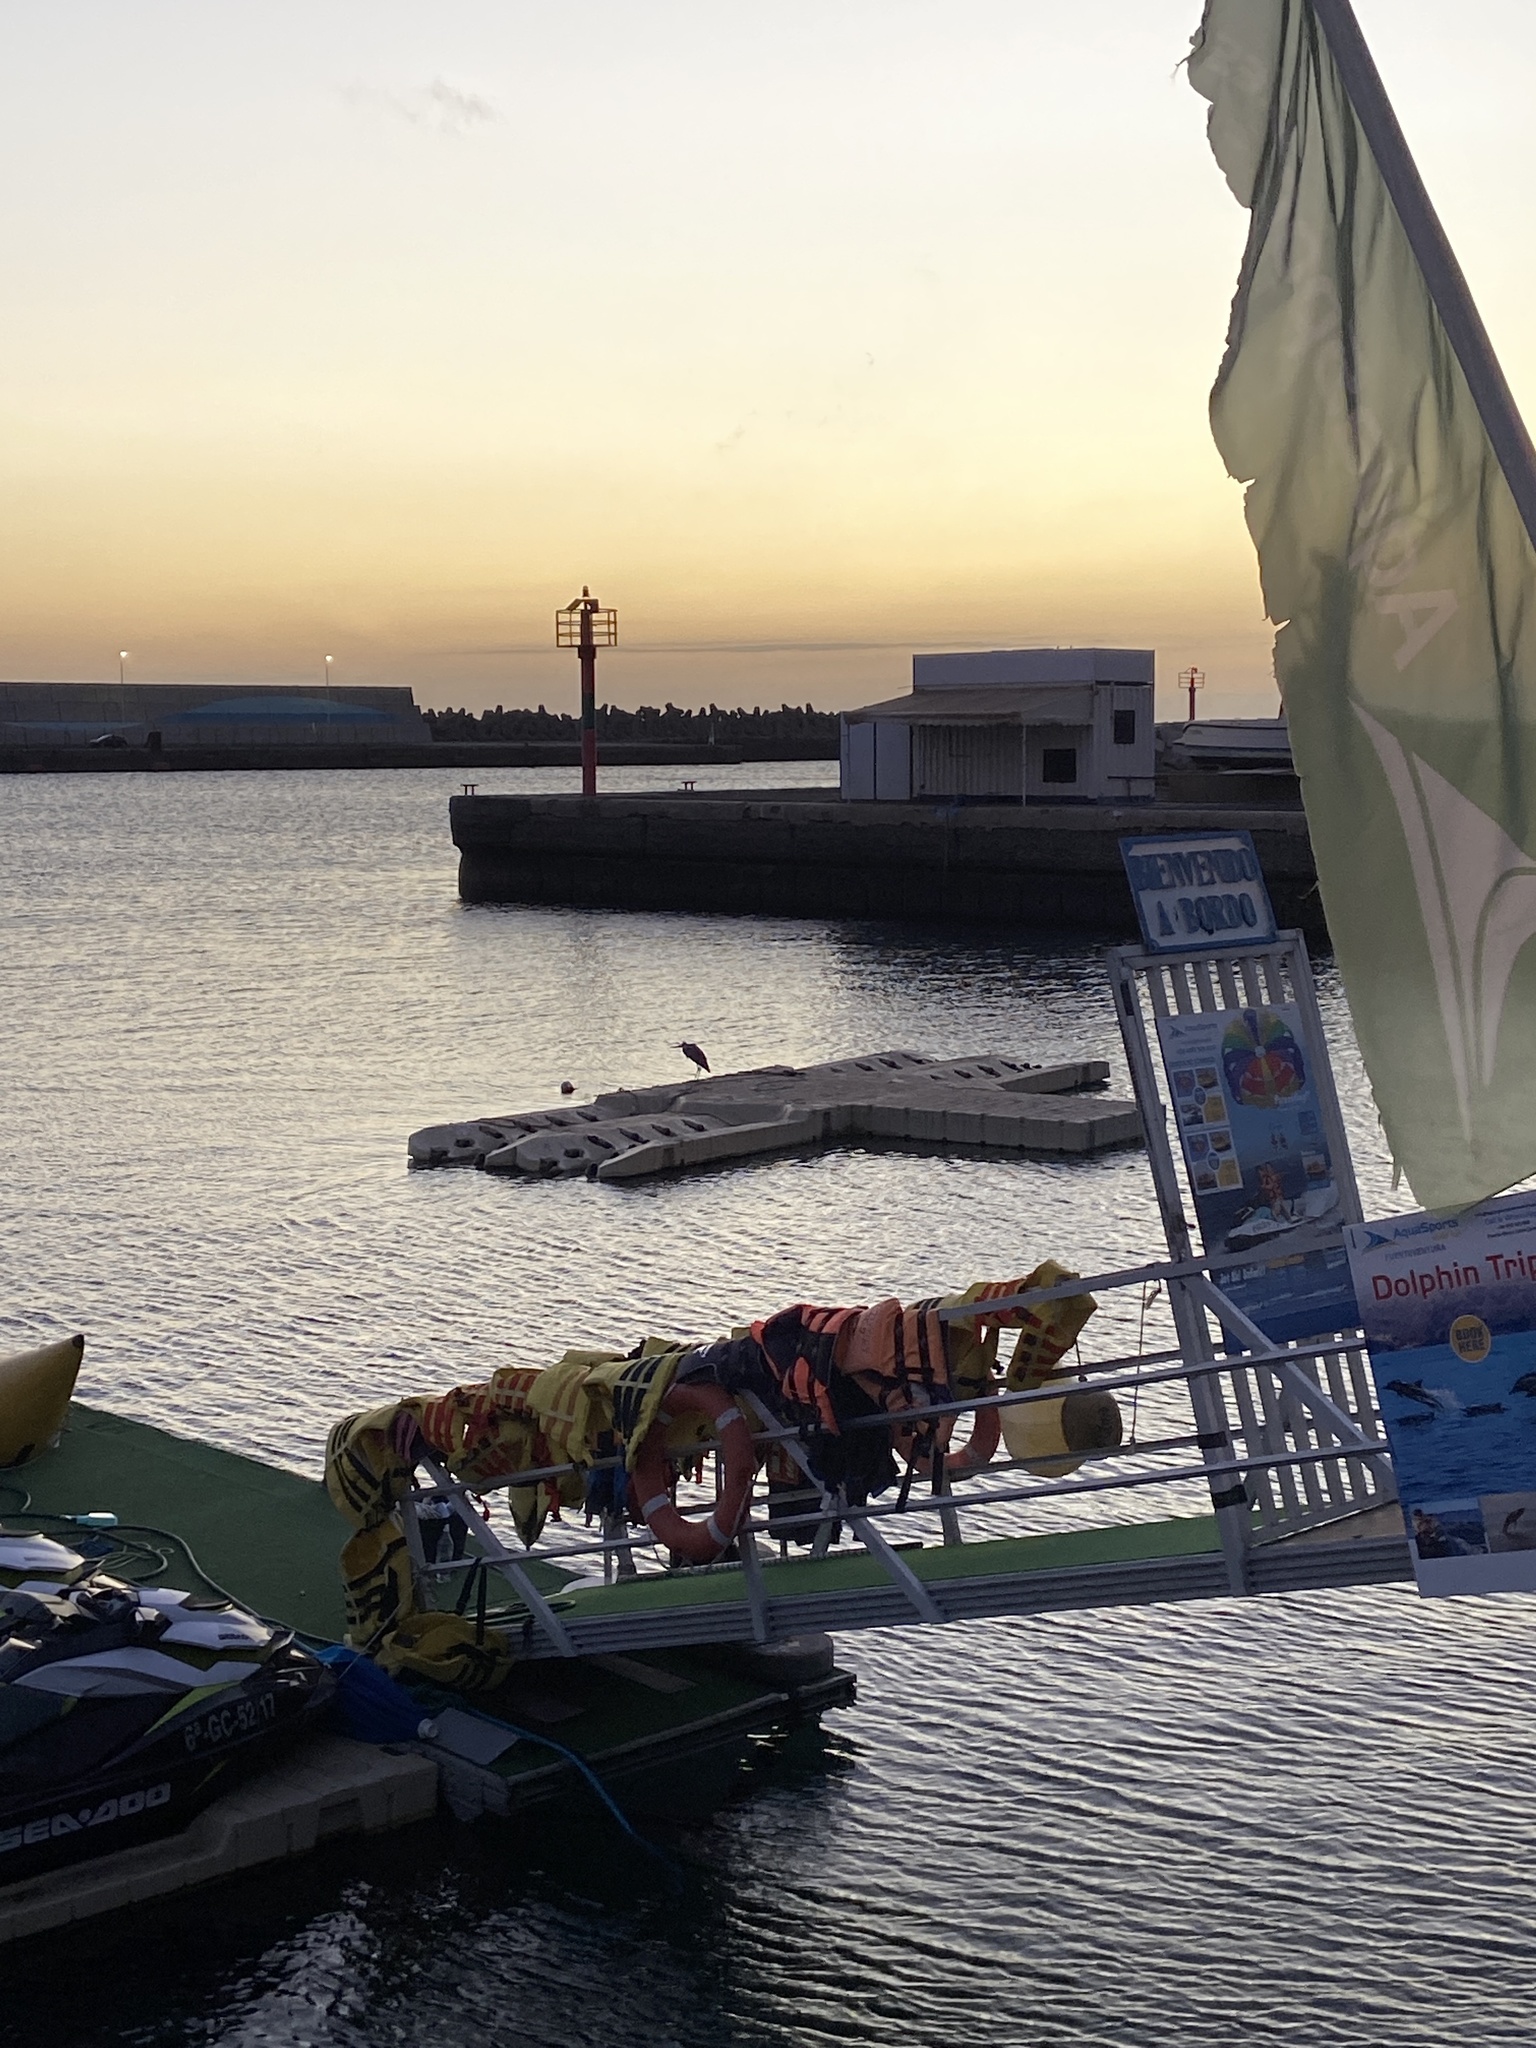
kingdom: Animalia
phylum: Chordata
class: Aves
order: Pelecaniformes
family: Ardeidae
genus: Ardea
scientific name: Ardea cinerea
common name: Grey heron
